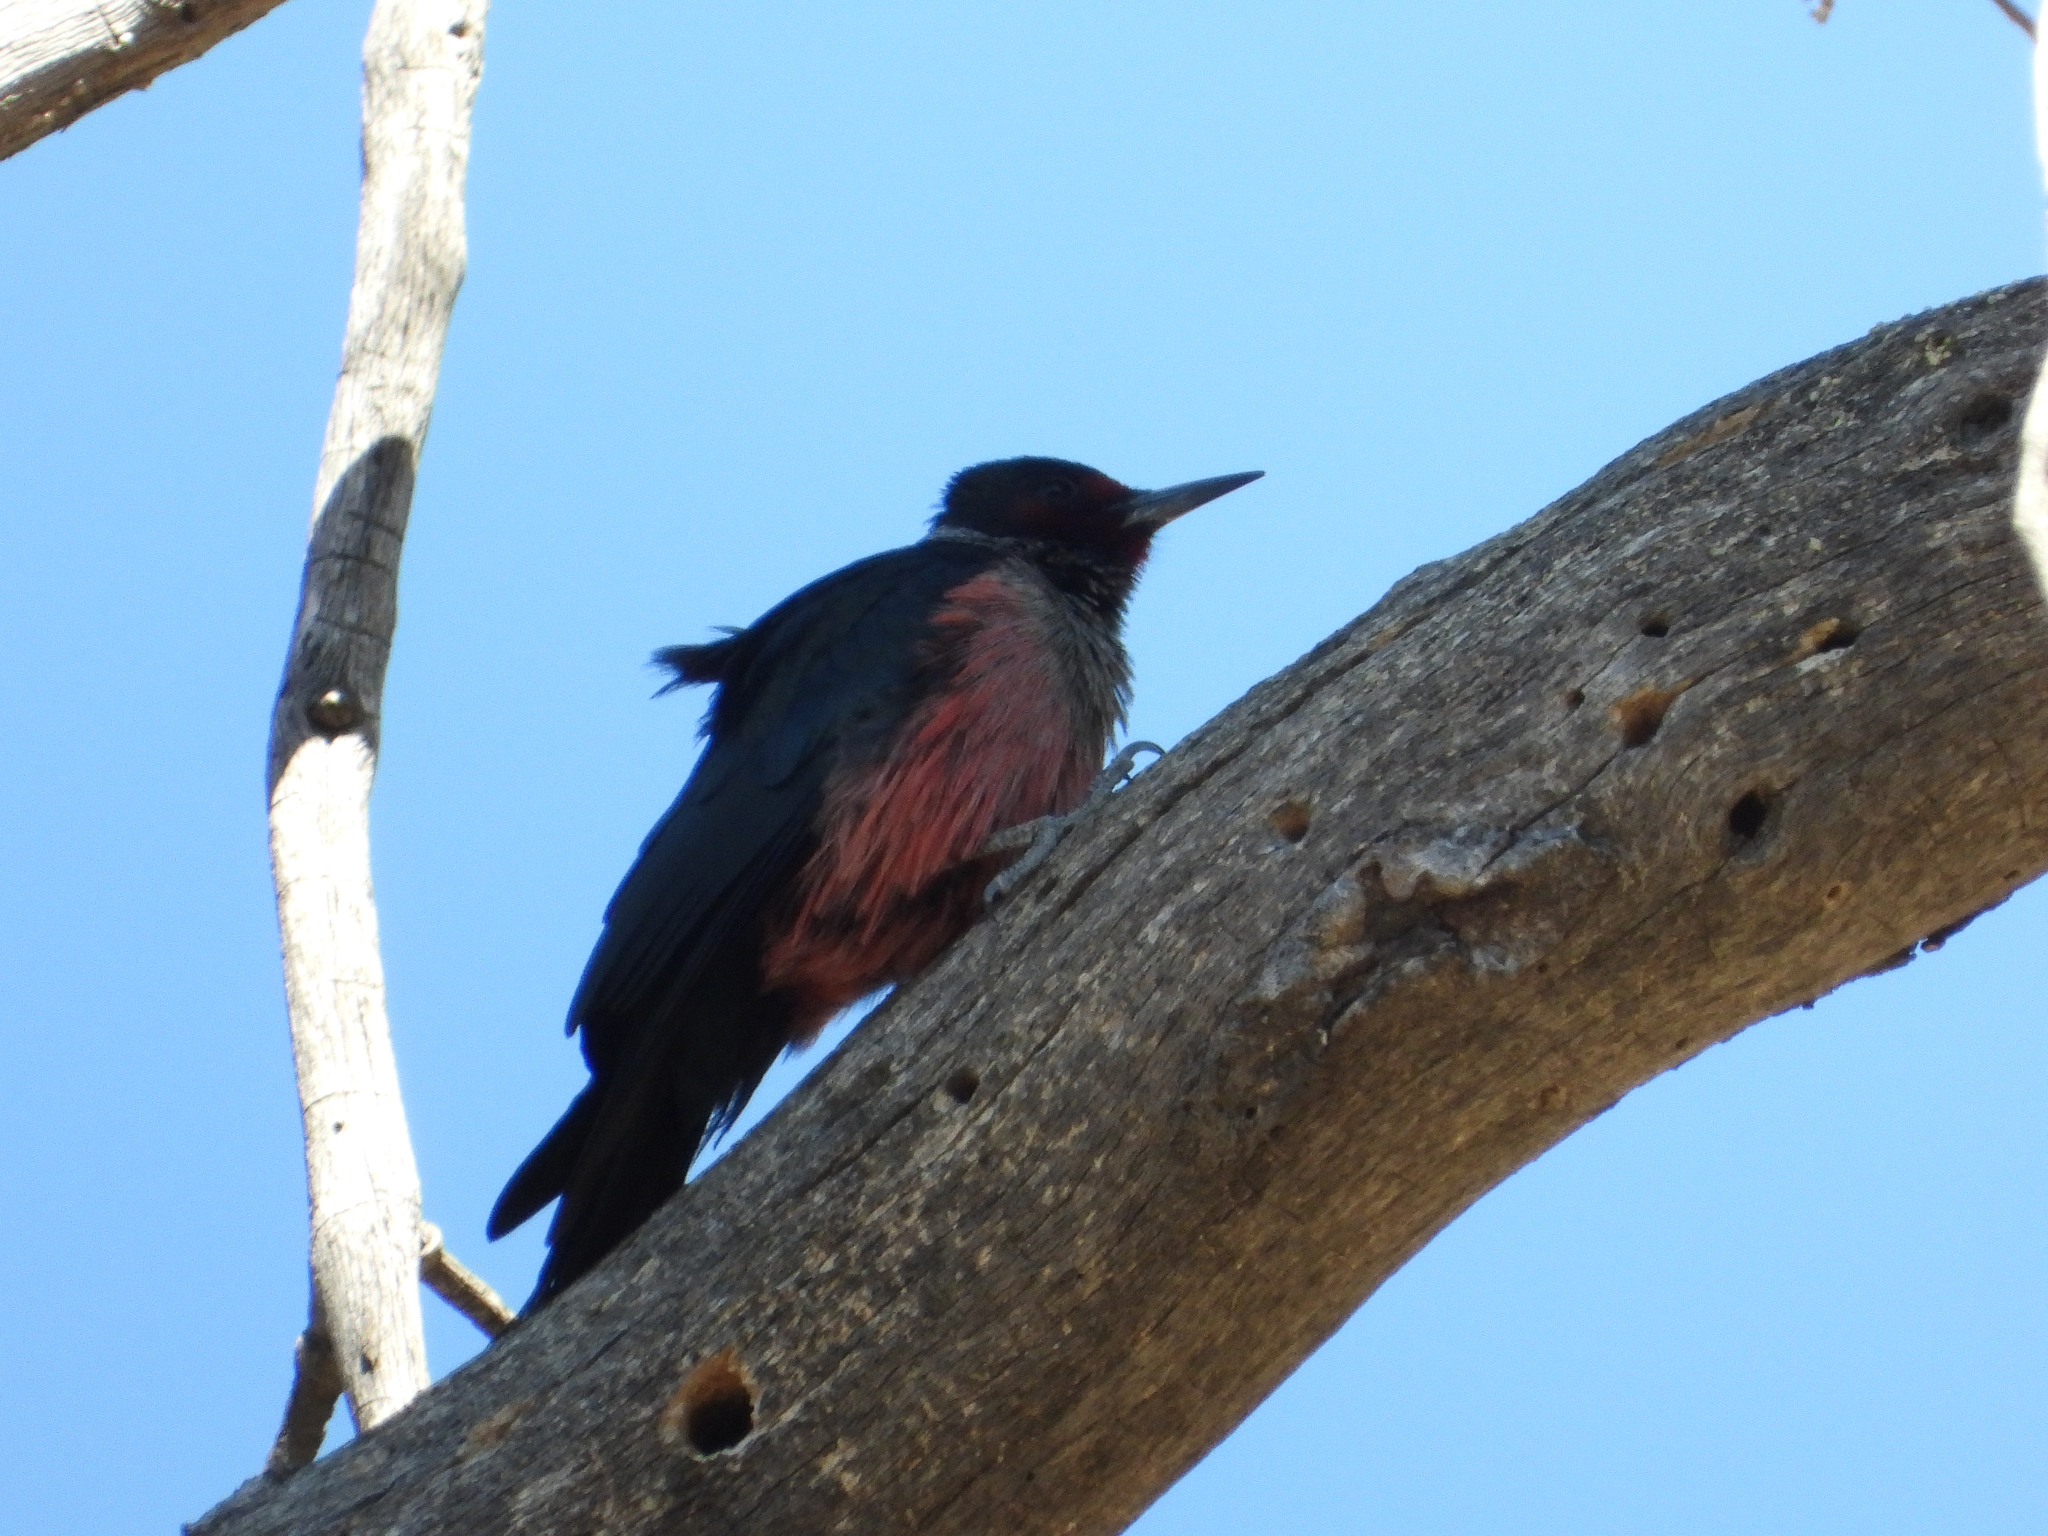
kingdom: Animalia
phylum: Chordata
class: Aves
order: Piciformes
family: Picidae
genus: Melanerpes
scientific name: Melanerpes lewis
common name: Lewis's woodpecker
